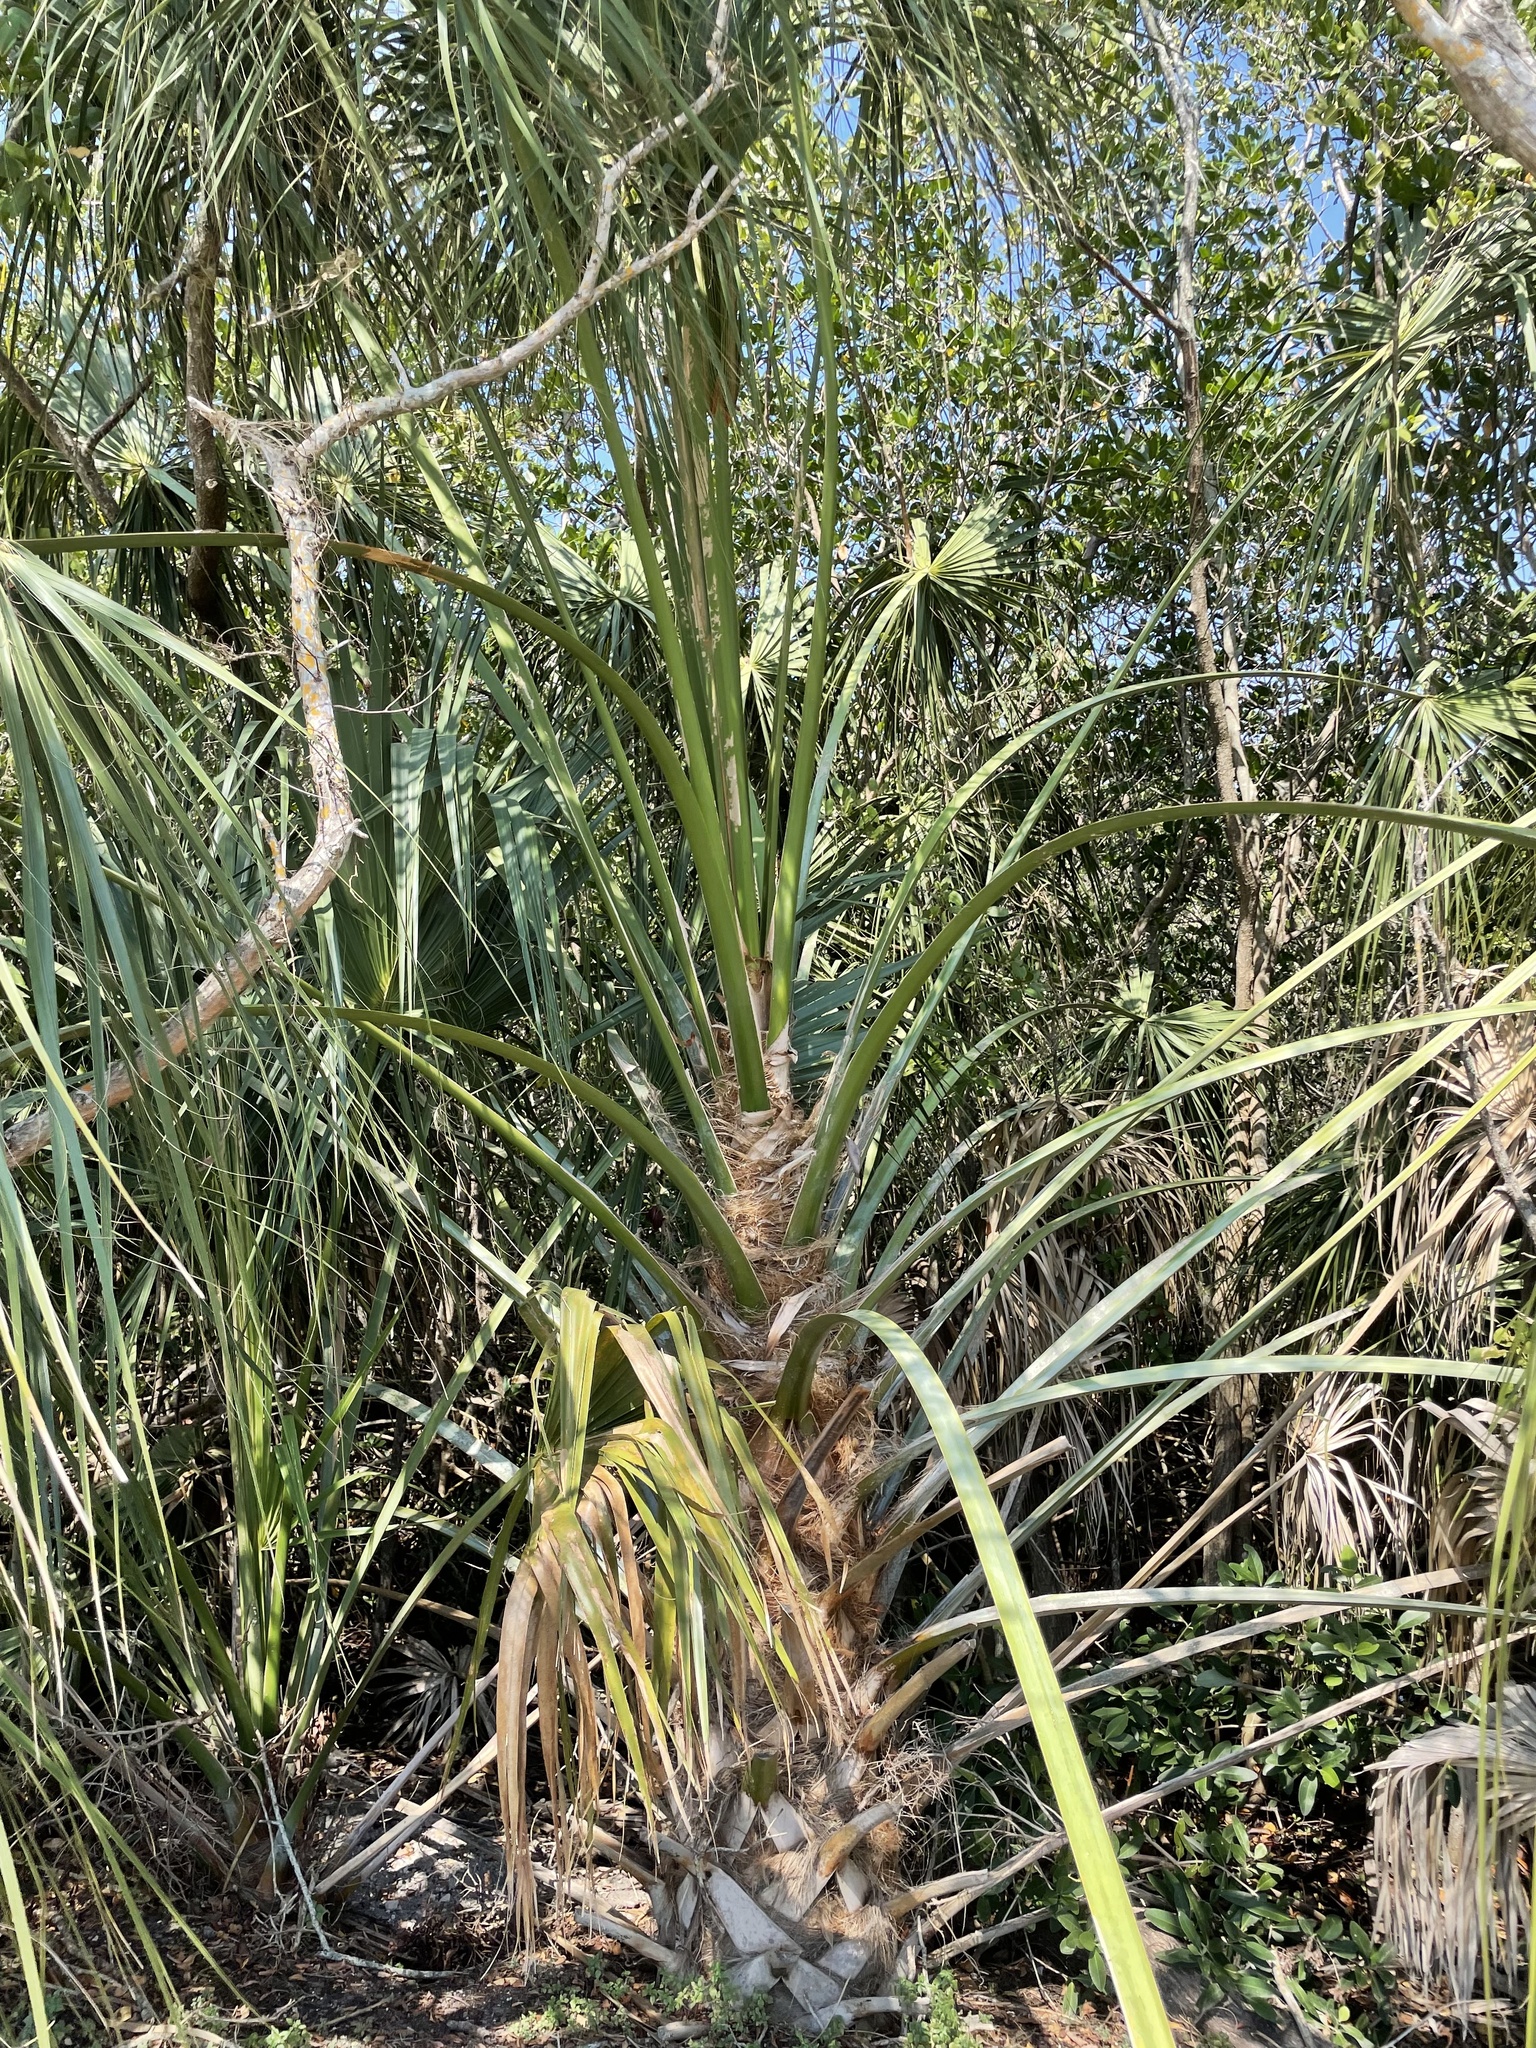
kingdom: Plantae
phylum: Tracheophyta
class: Liliopsida
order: Arecales
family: Arecaceae
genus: Sabal
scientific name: Sabal palmetto
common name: Blue palmetto
